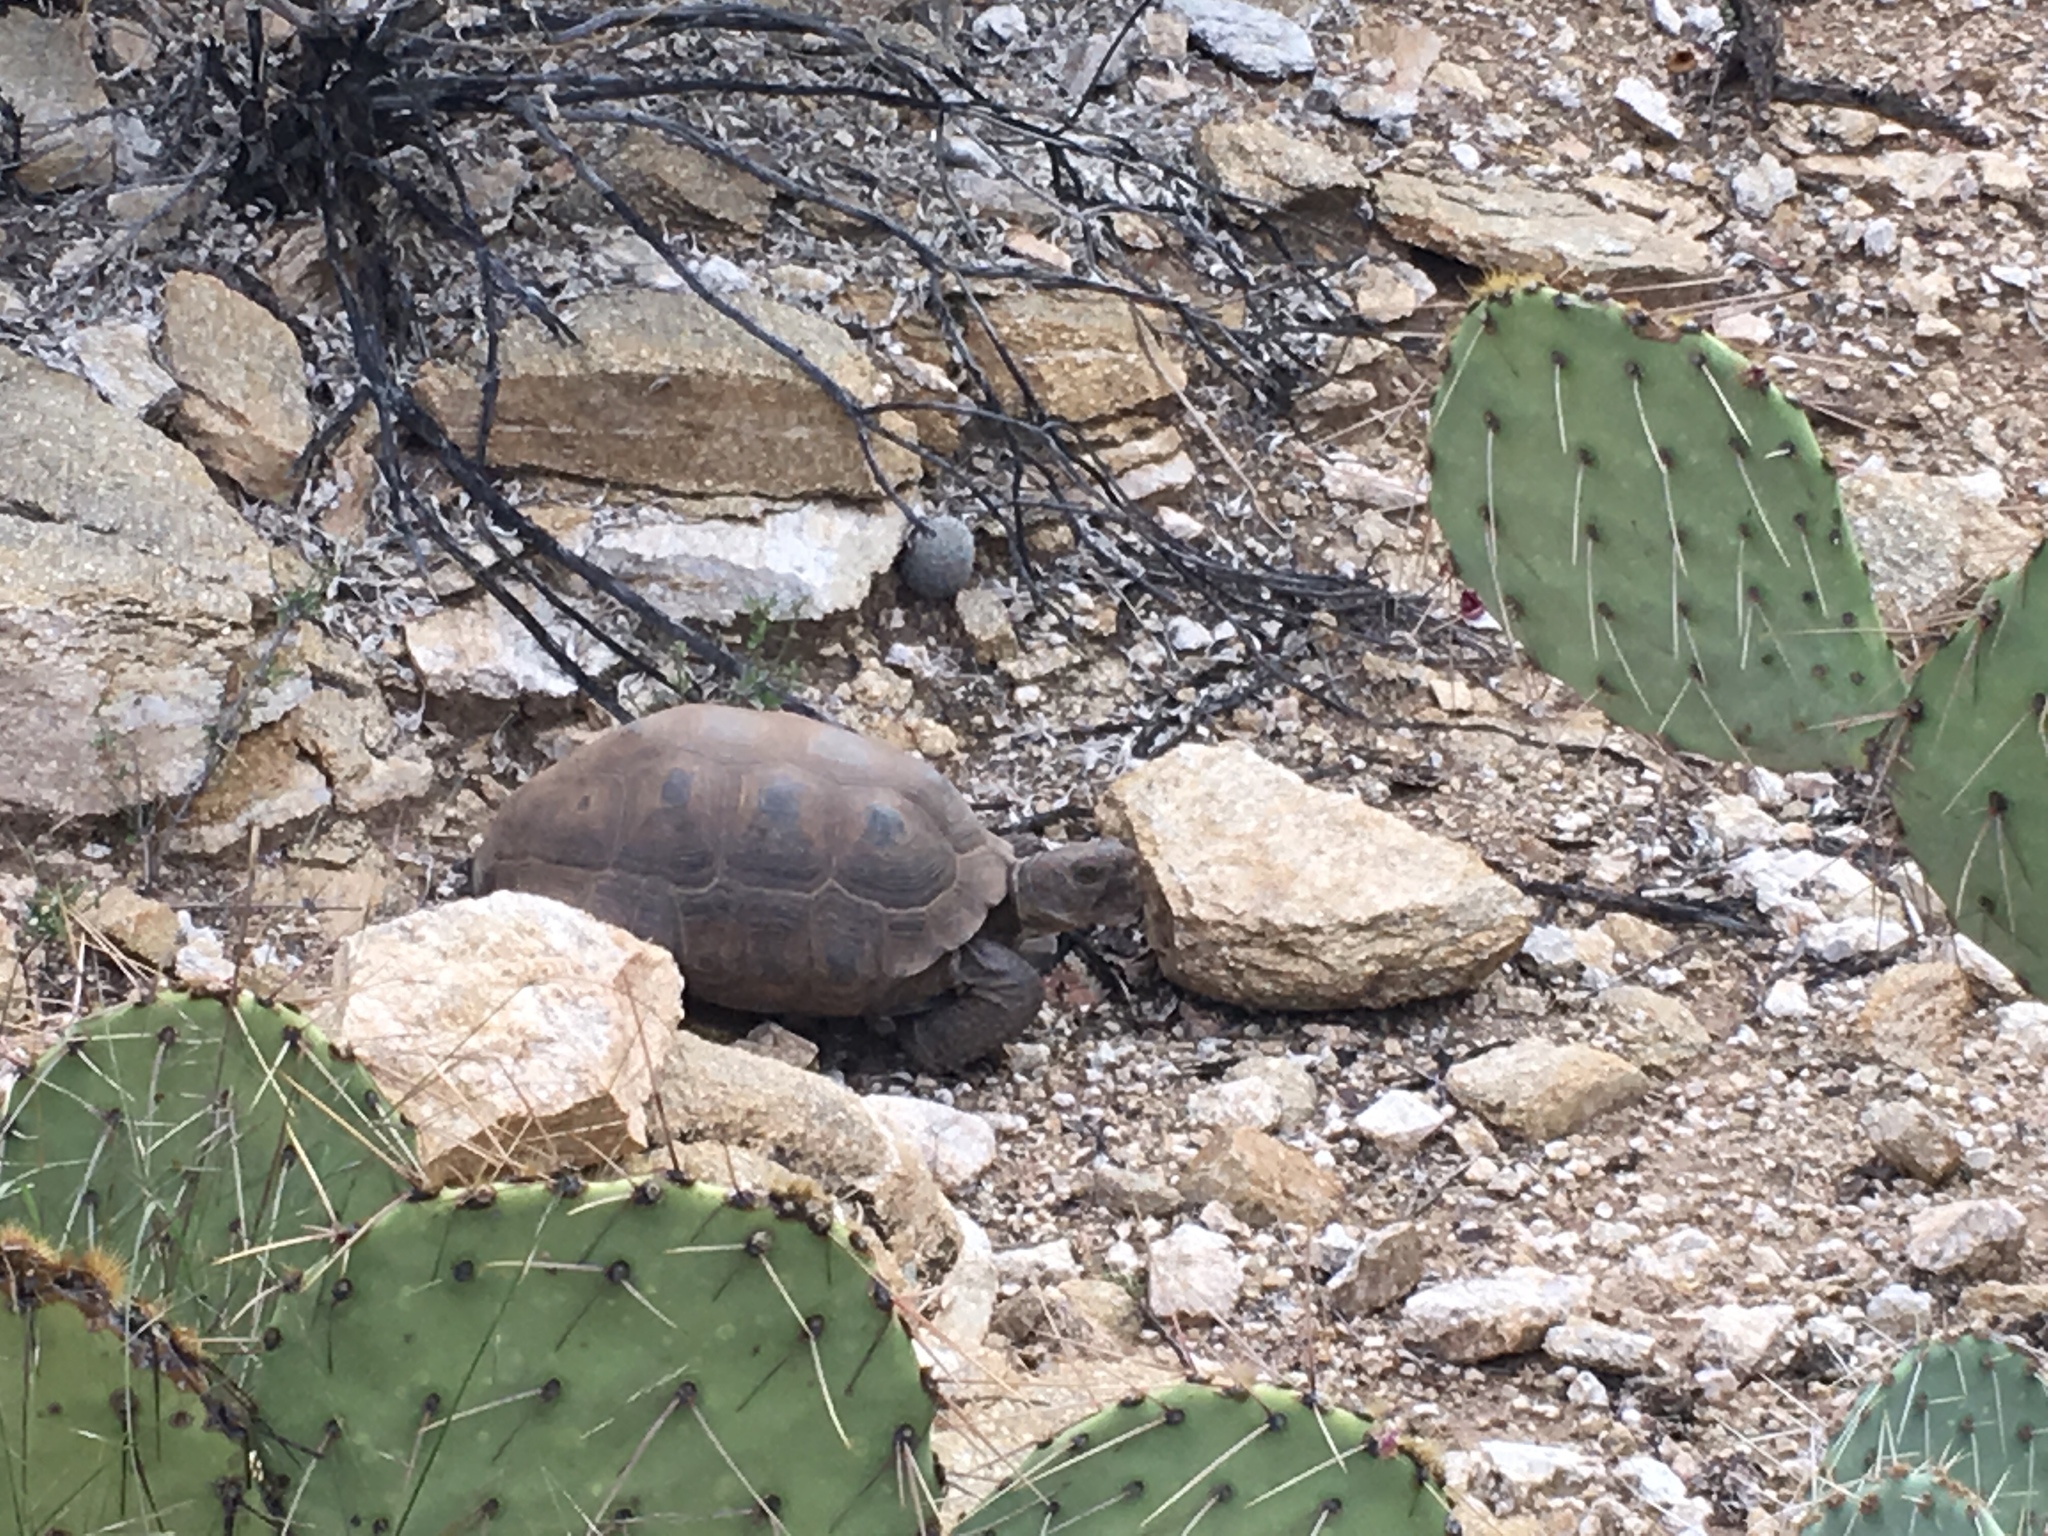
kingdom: Animalia
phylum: Chordata
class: Testudines
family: Testudinidae
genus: Gopherus
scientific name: Gopherus morafkai
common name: Sonoran desert tortoise
